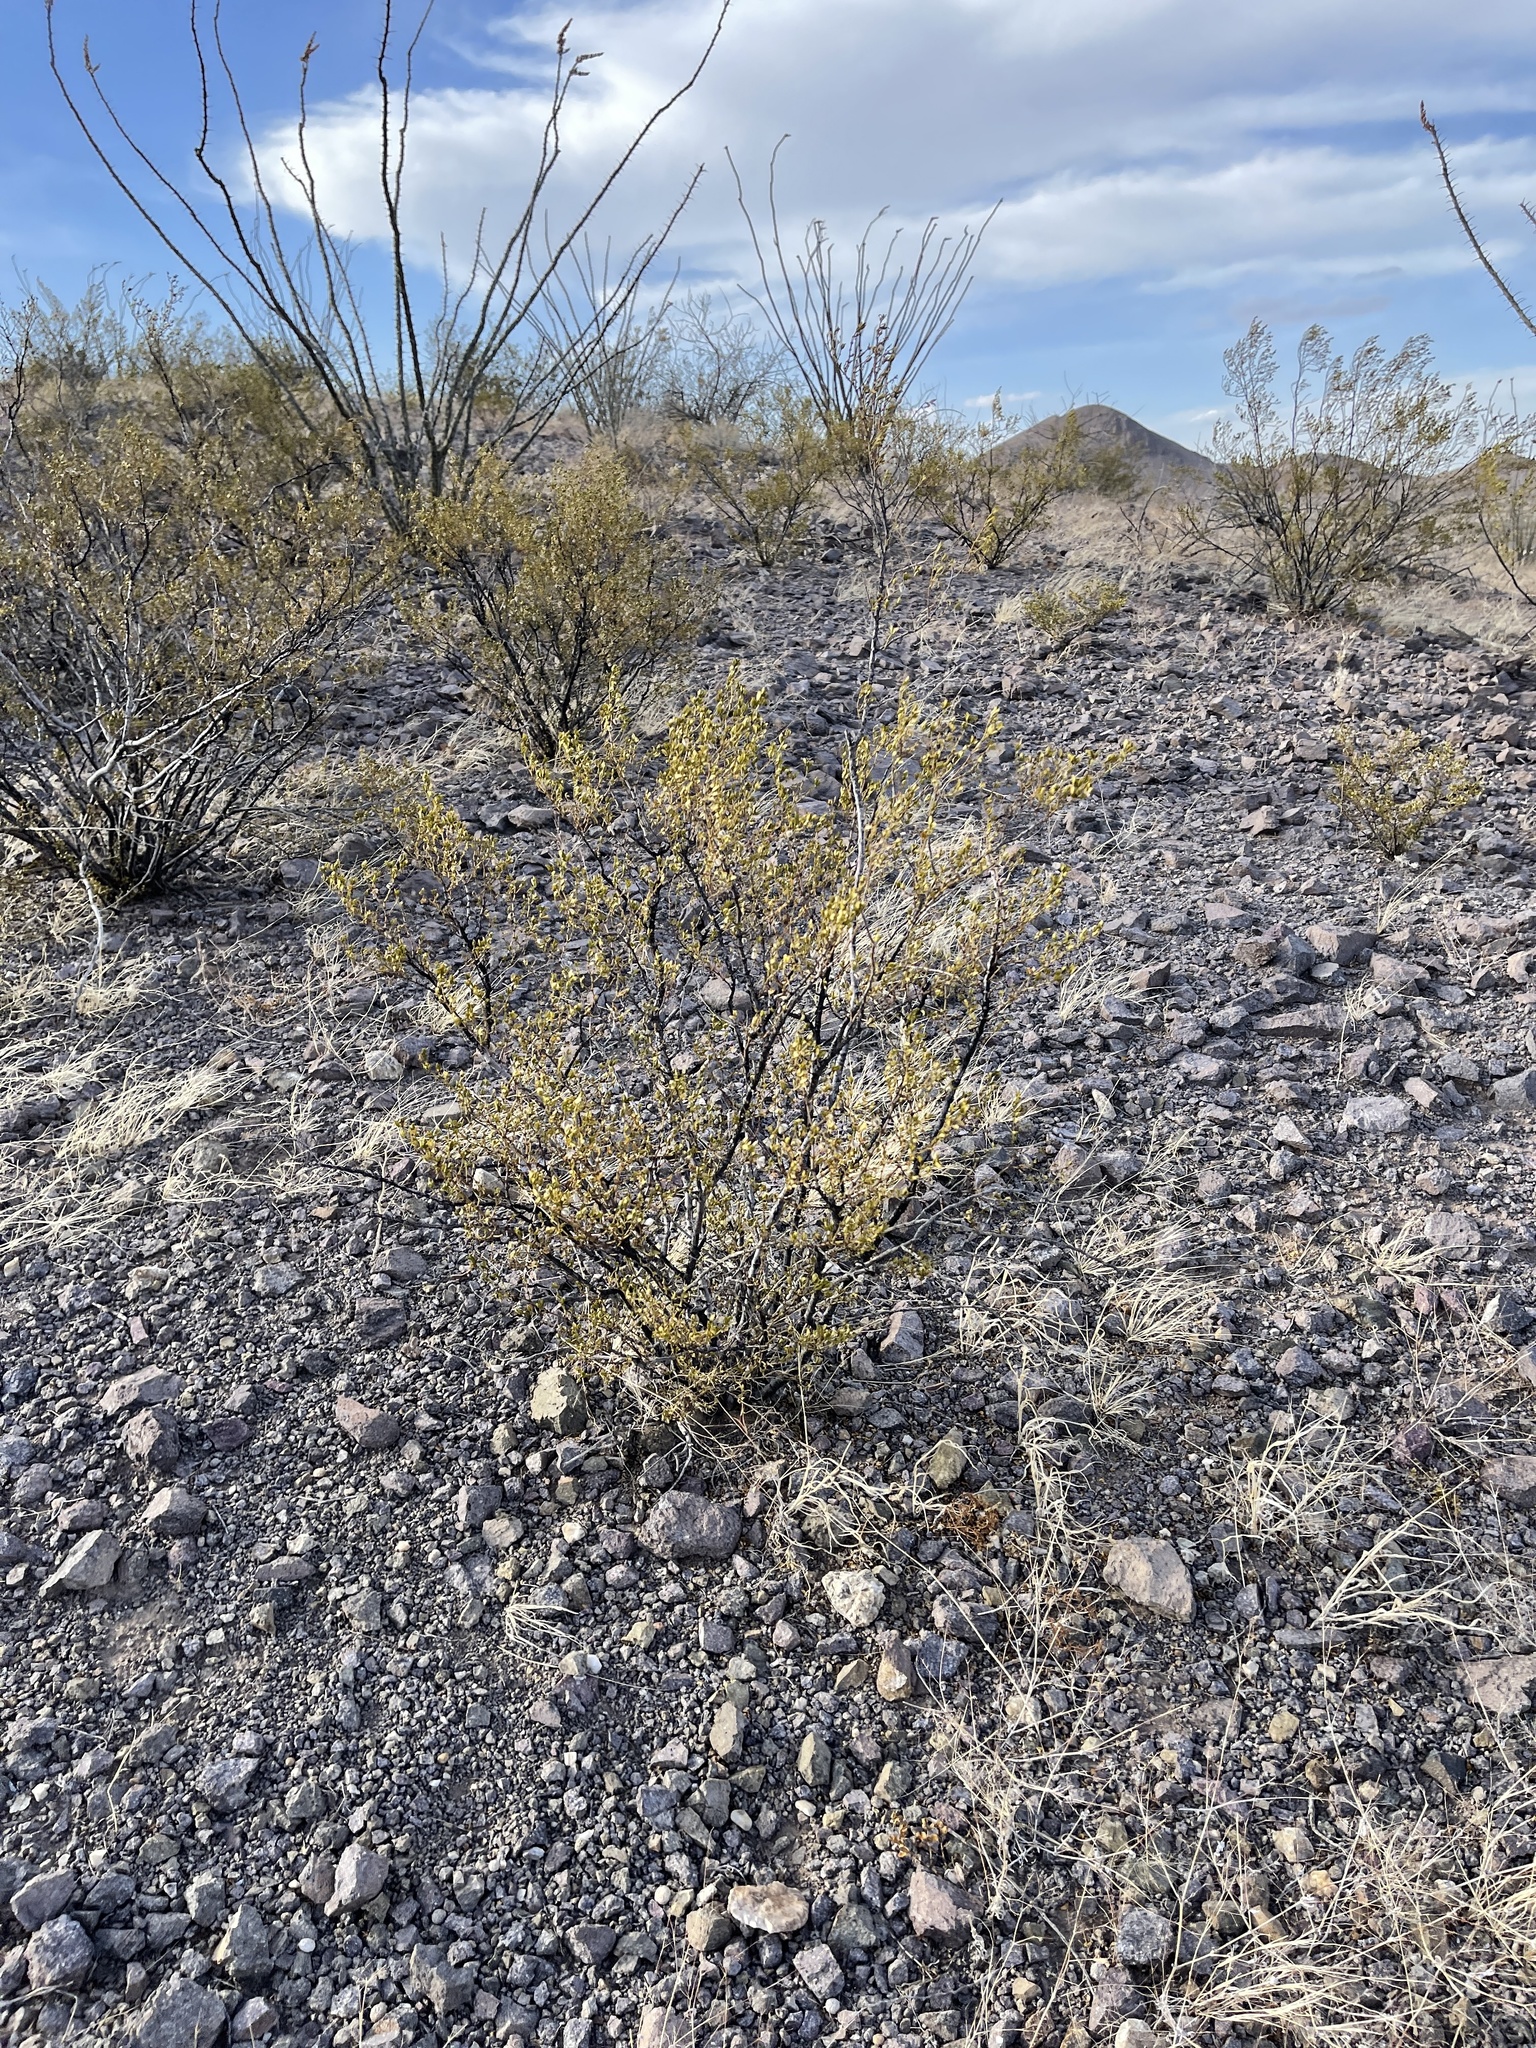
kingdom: Plantae
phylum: Tracheophyta
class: Magnoliopsida
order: Zygophyllales
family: Zygophyllaceae
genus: Larrea
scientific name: Larrea tridentata
